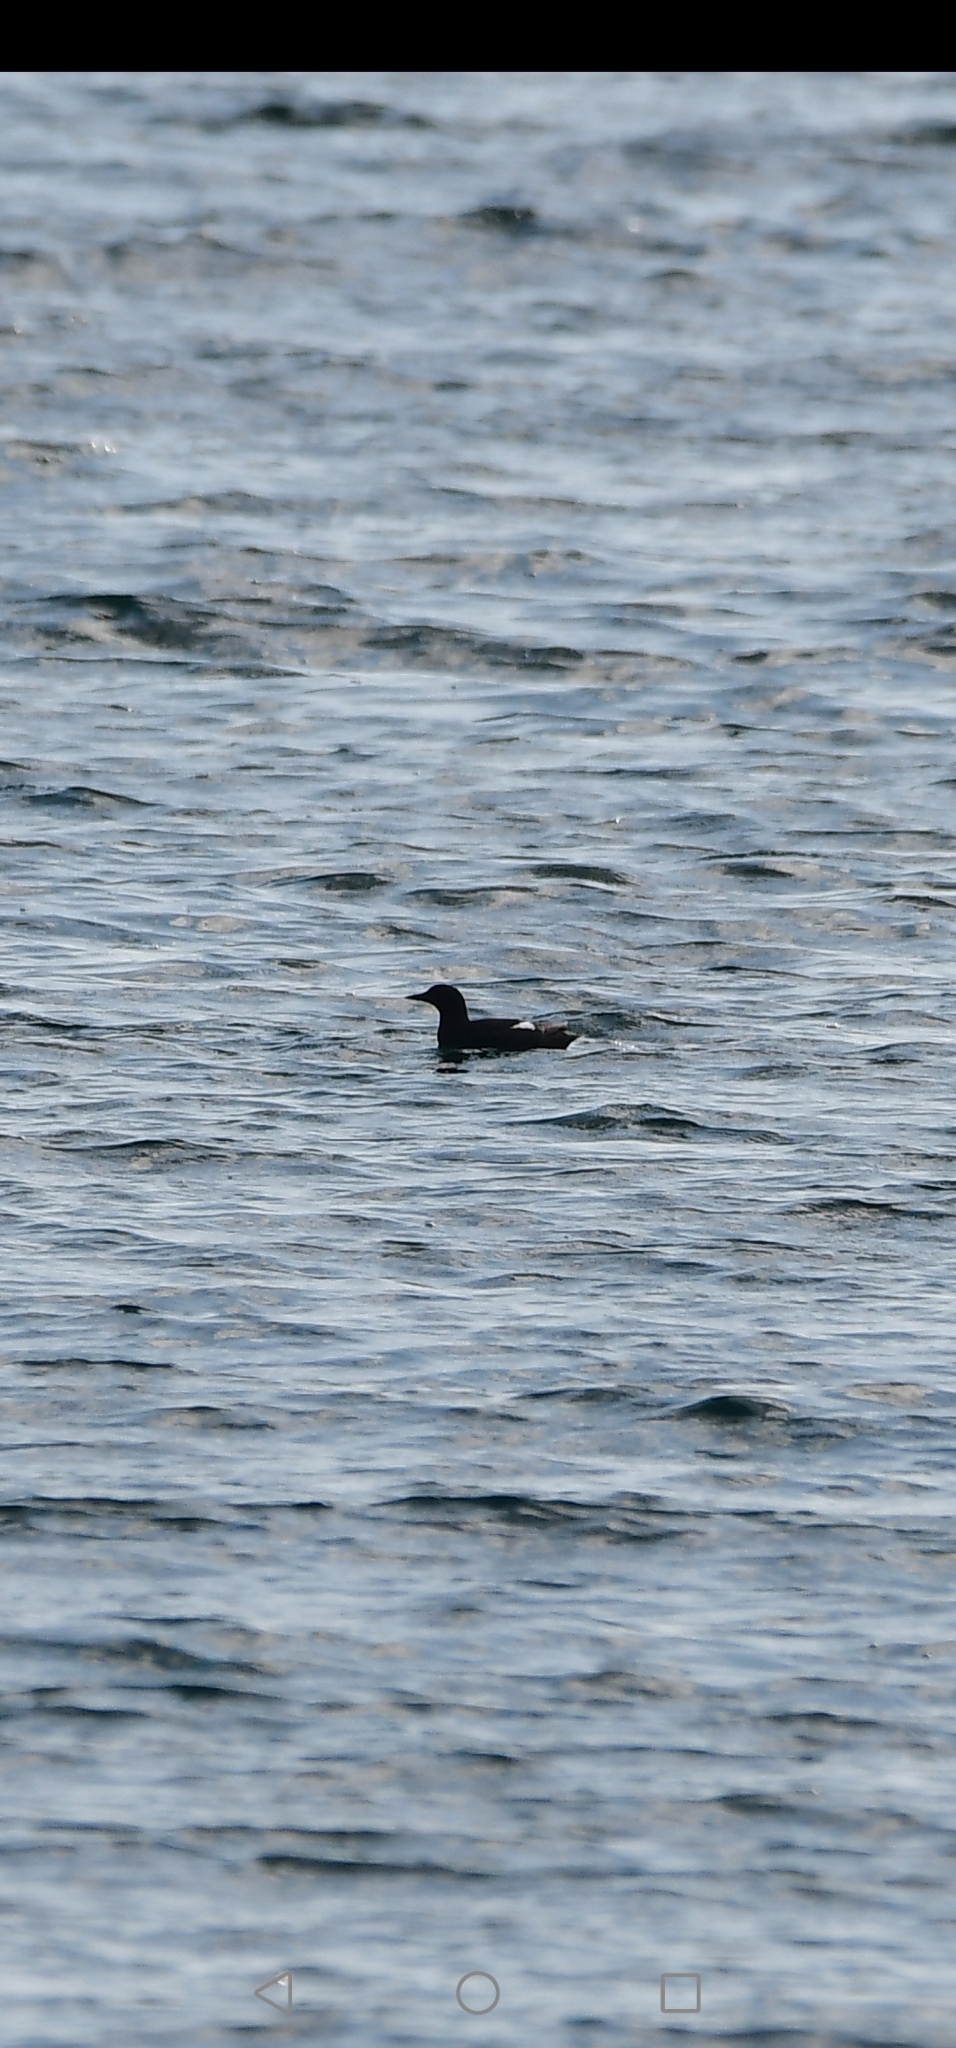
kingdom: Animalia
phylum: Chordata
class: Aves
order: Charadriiformes
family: Alcidae
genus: Cepphus
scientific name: Cepphus grylle
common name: Black guillemot
